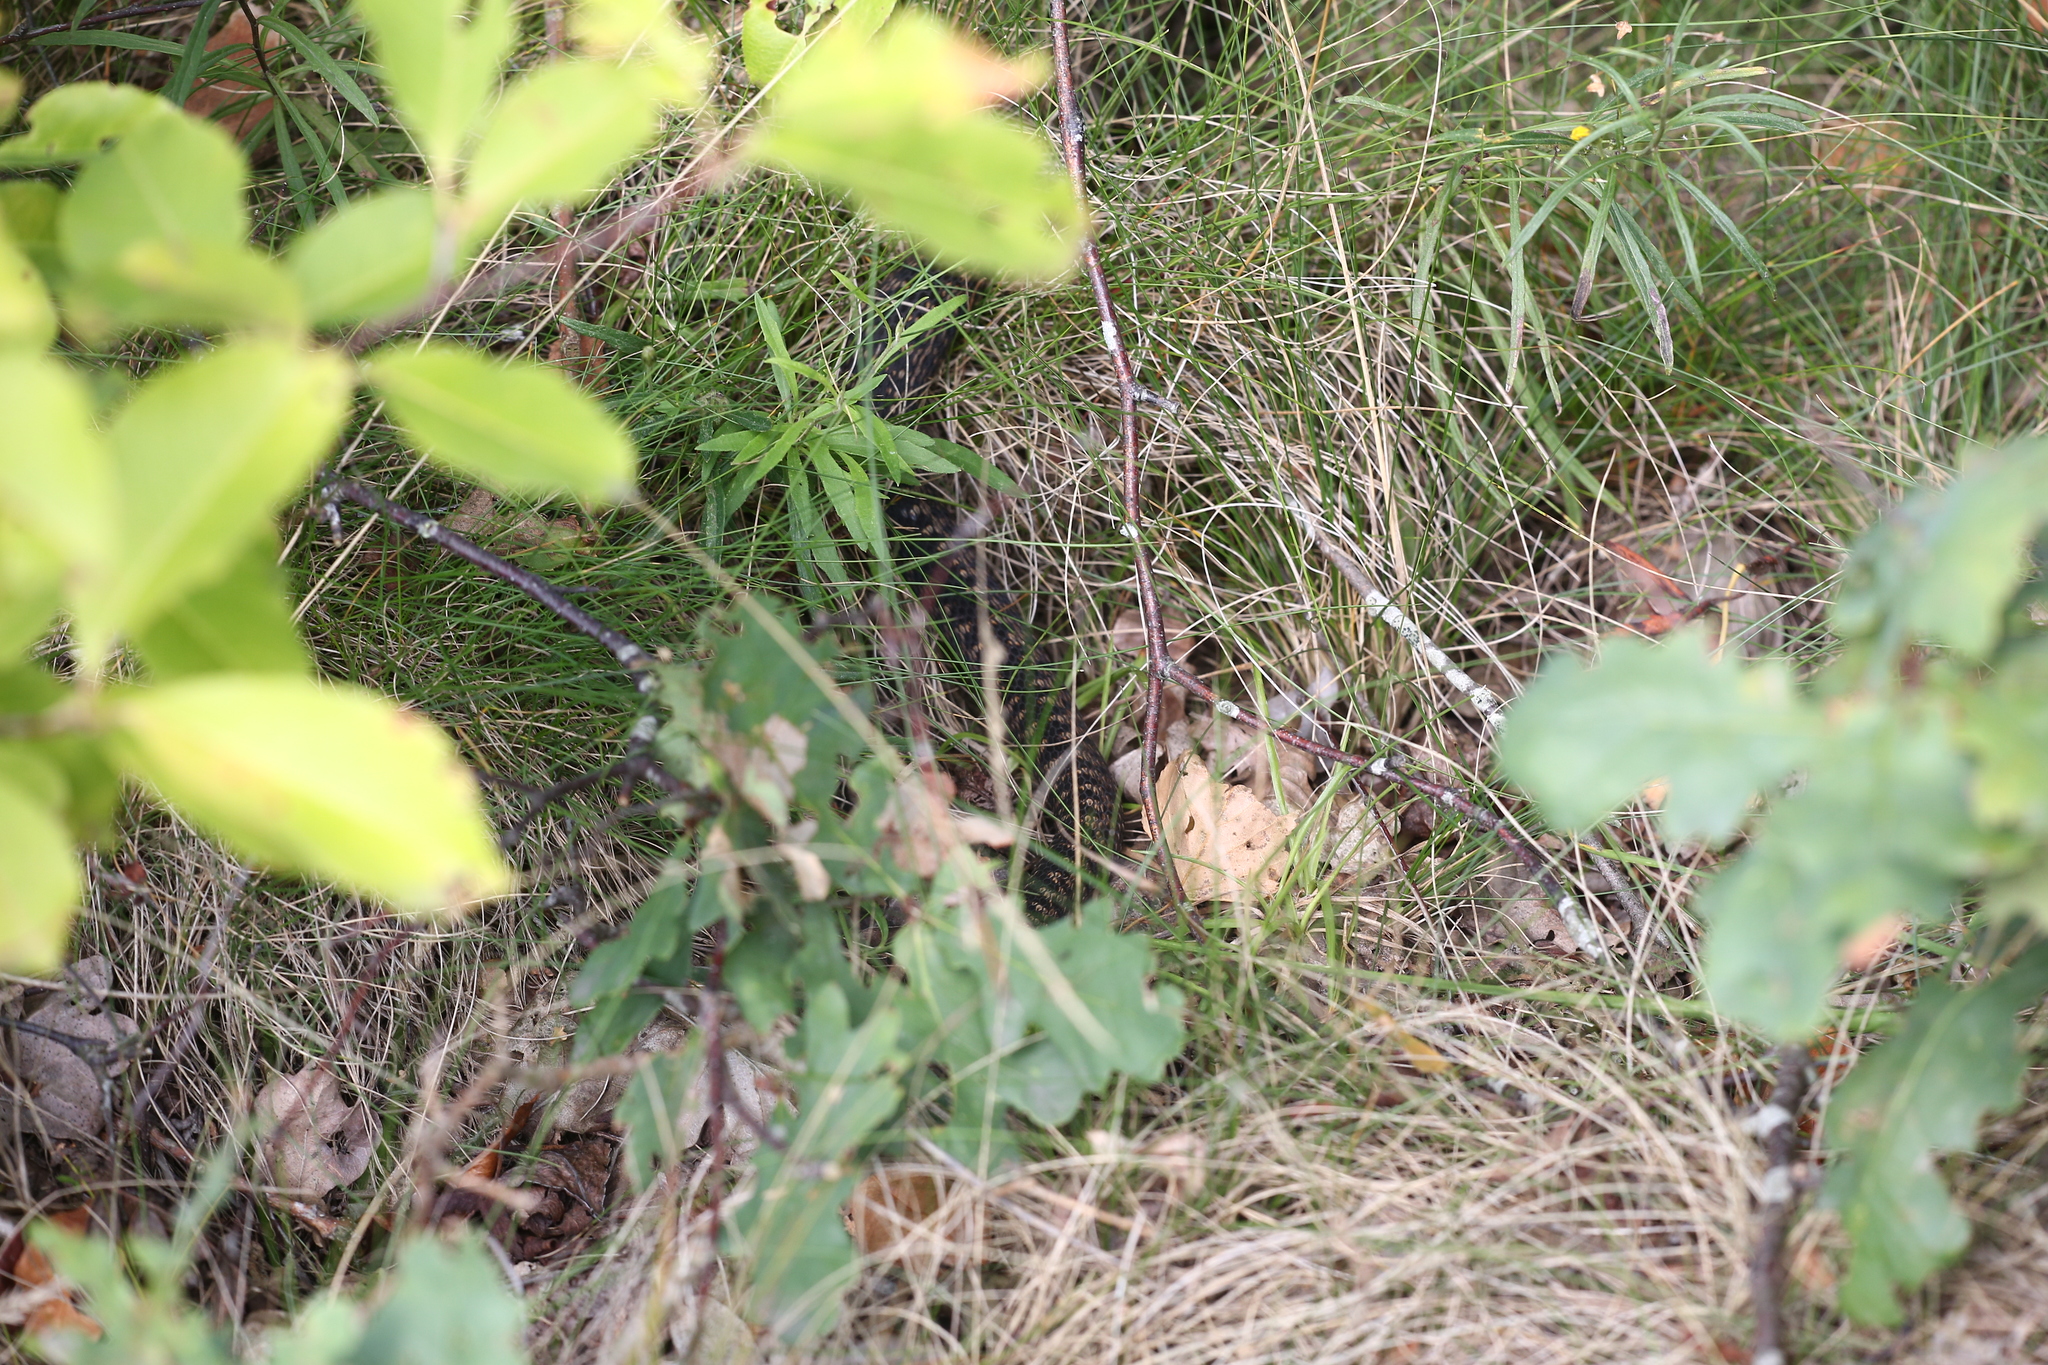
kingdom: Animalia
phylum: Chordata
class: Squamata
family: Viperidae
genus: Vipera
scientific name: Vipera berus
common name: Adder
